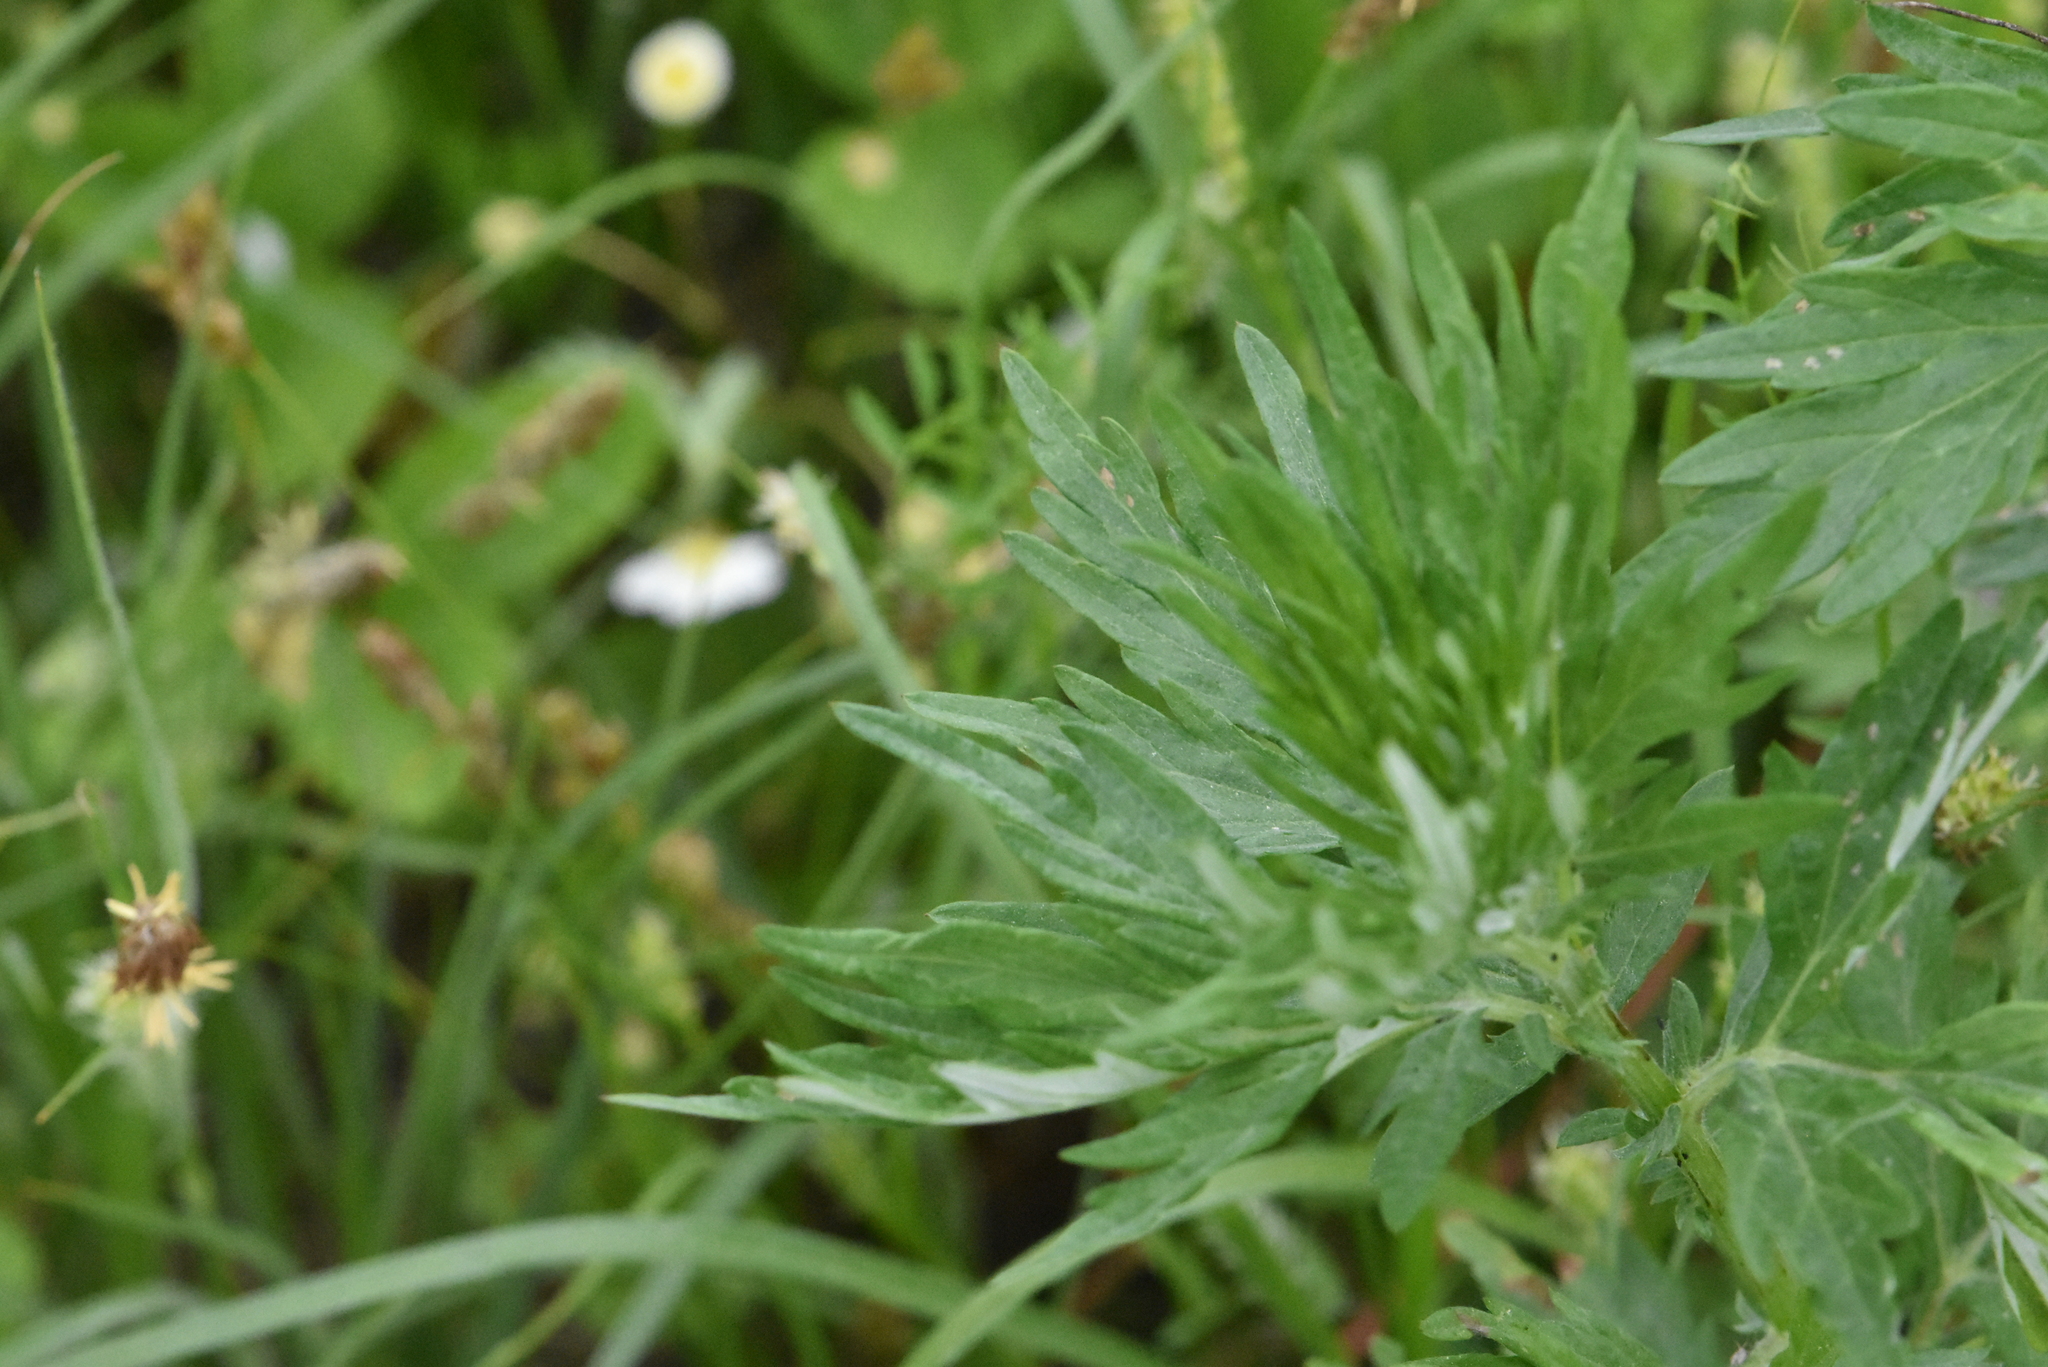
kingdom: Plantae
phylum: Tracheophyta
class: Magnoliopsida
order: Asterales
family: Asteraceae
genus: Artemisia
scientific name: Artemisia vulgaris
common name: Mugwort
